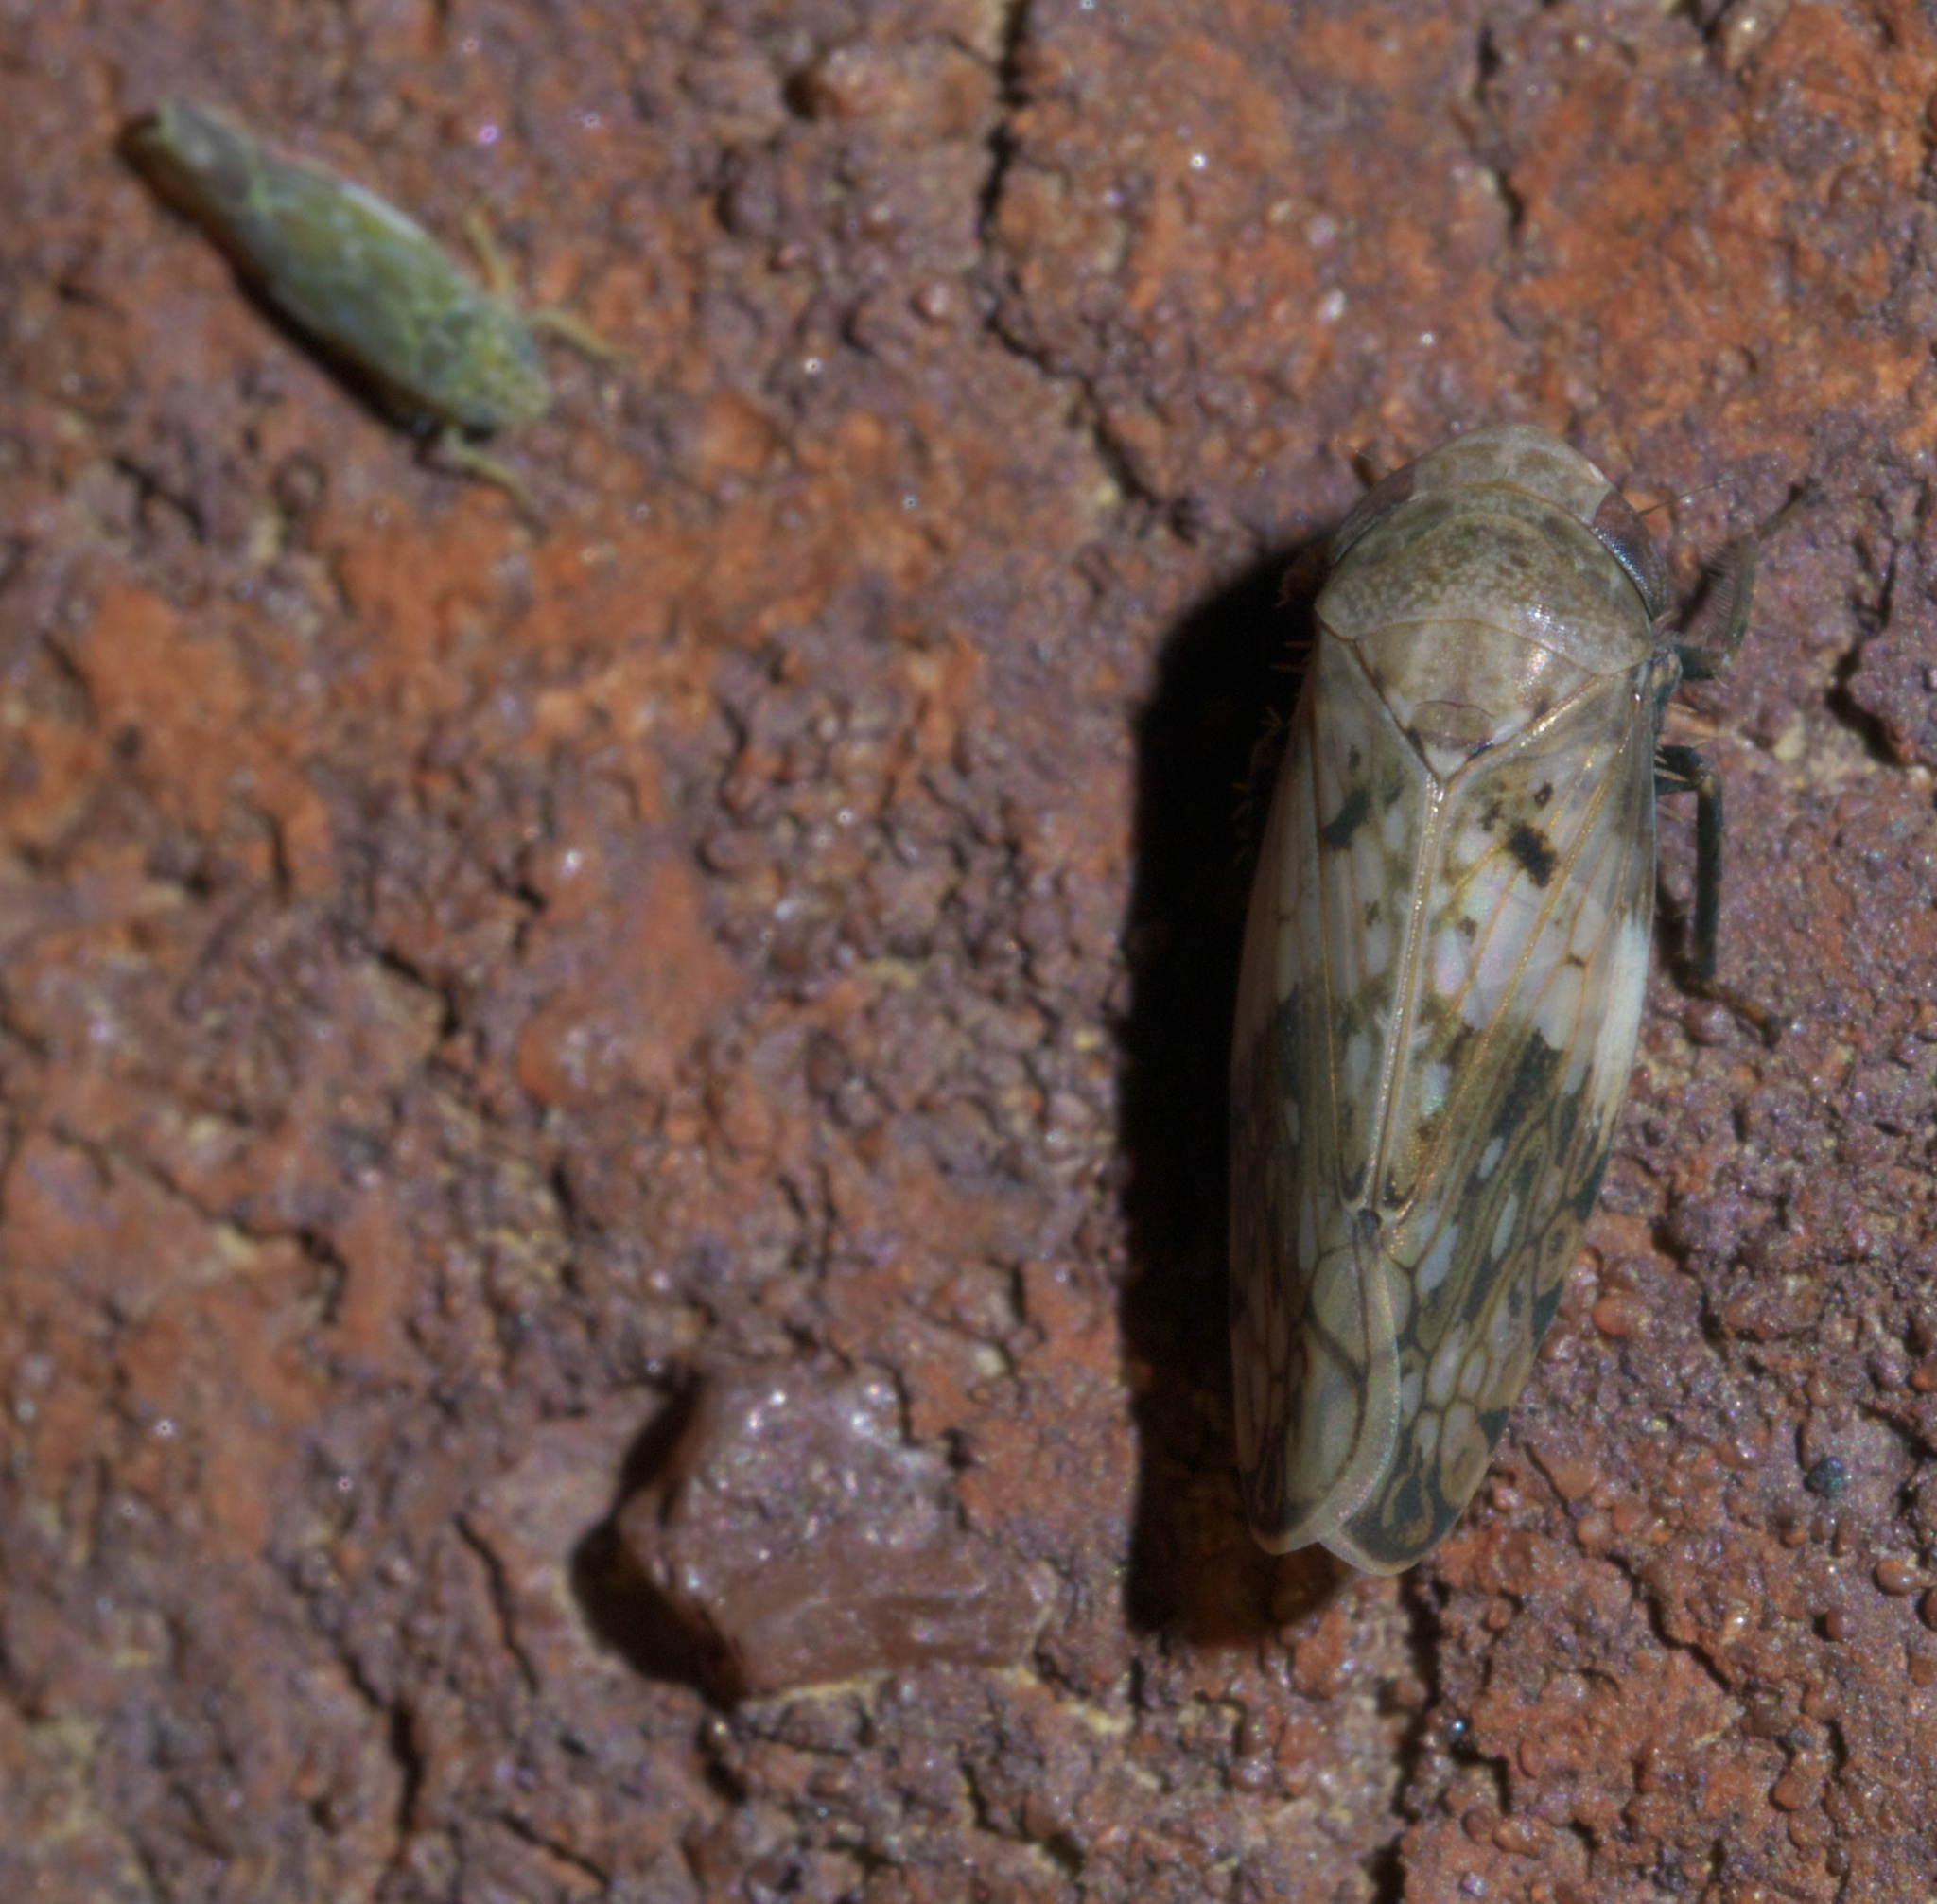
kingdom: Animalia
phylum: Arthropoda
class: Insecta
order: Hemiptera
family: Cicadellidae
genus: Menosoma
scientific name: Menosoma cinctum
